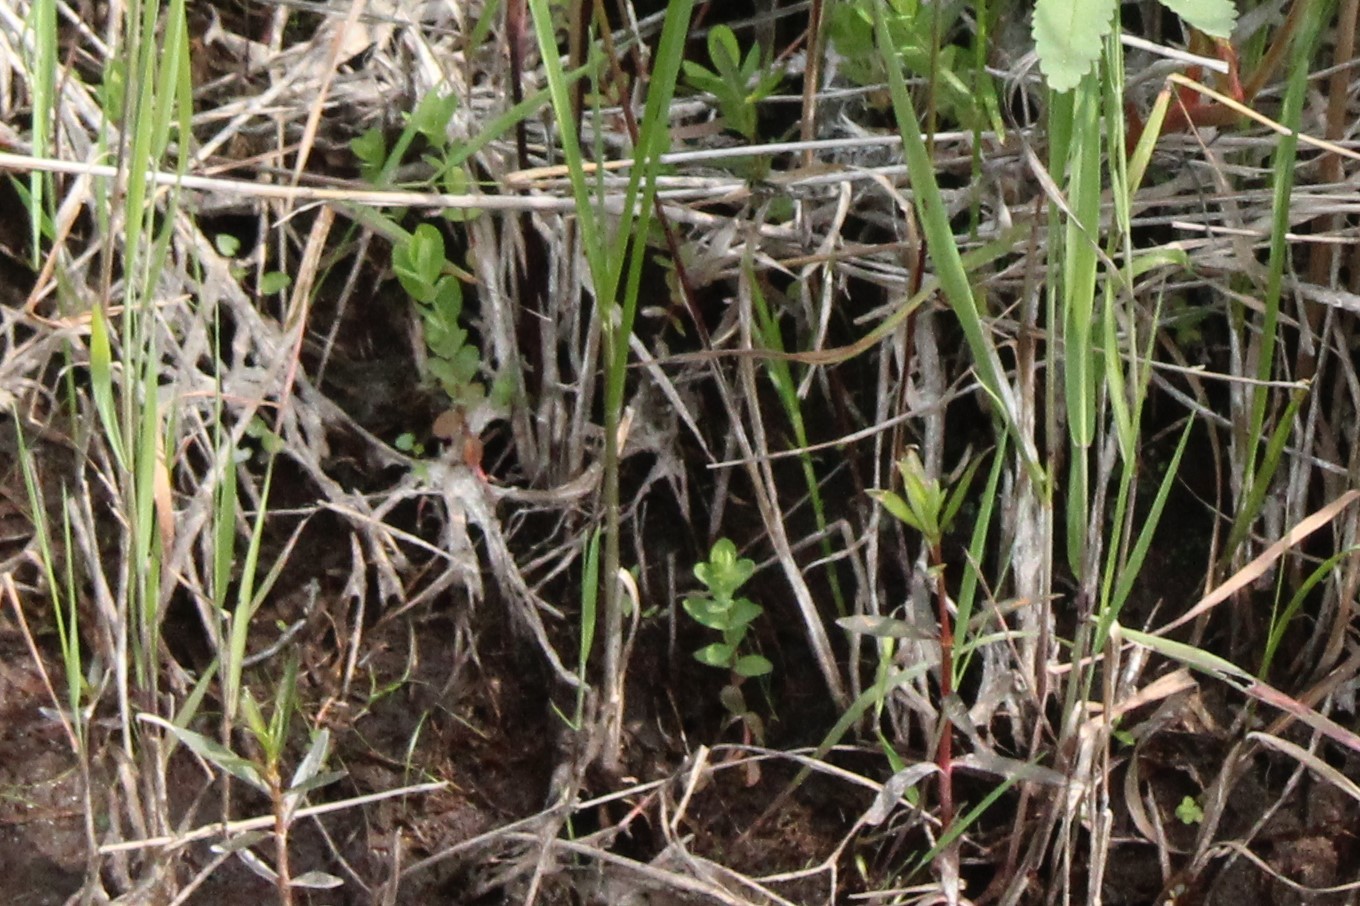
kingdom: Plantae
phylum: Tracheophyta
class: Magnoliopsida
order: Malpighiales
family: Hypericaceae
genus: Hypericum
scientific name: Hypericum boreale
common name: Northern bog st. john's-wort
